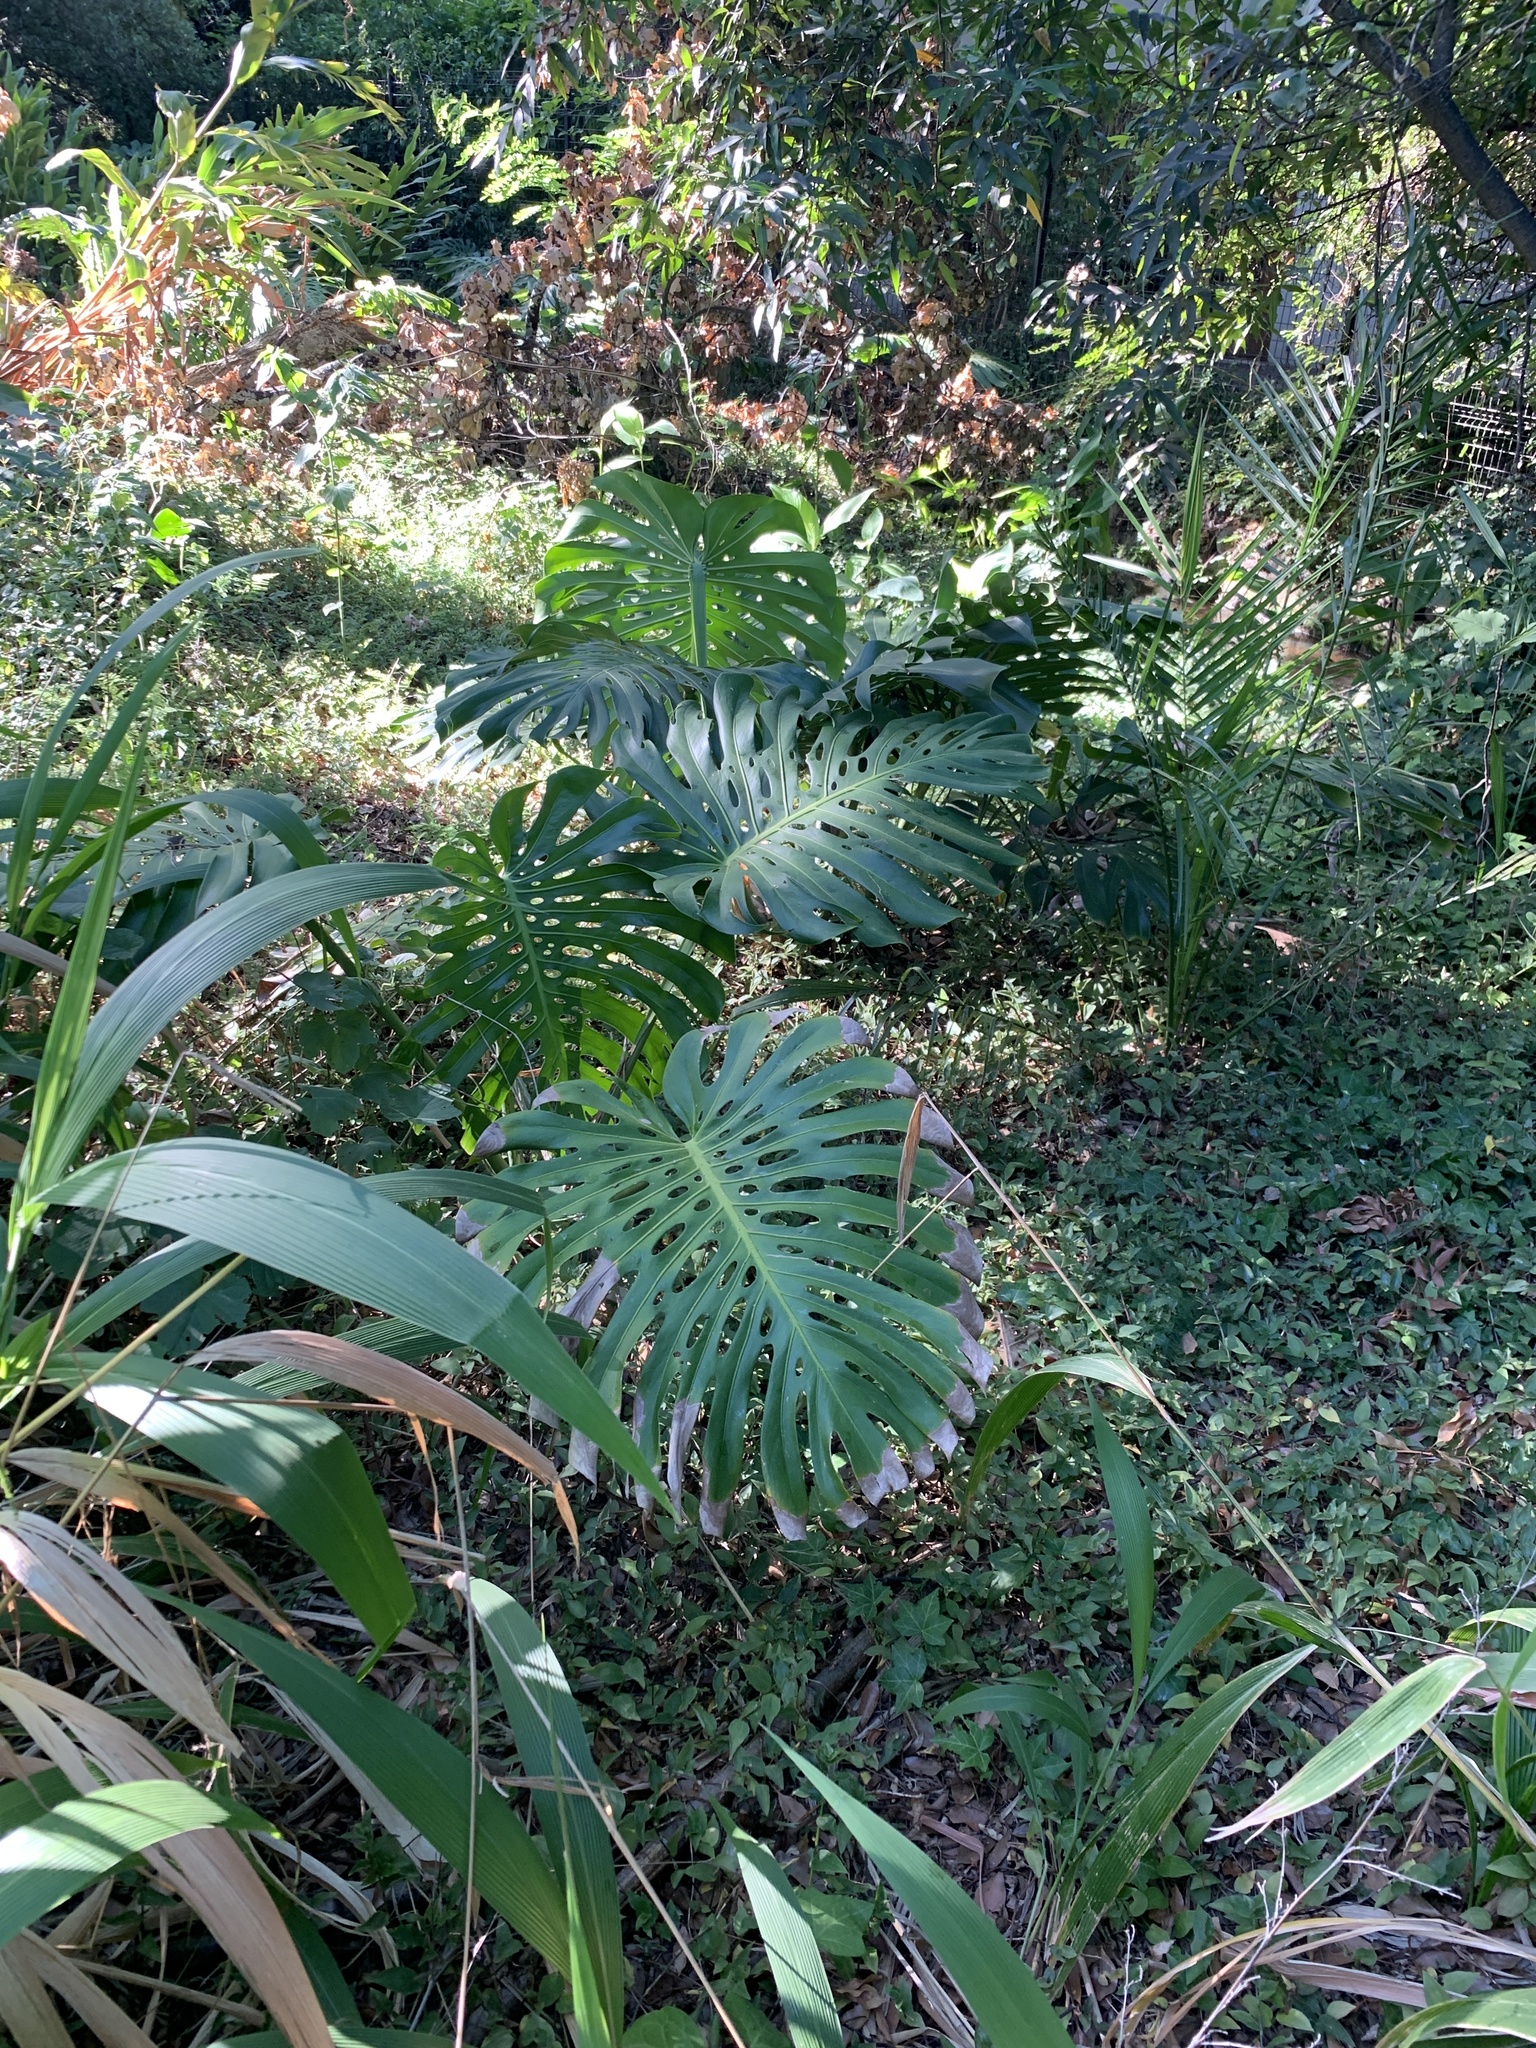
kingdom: Plantae
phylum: Tracheophyta
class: Liliopsida
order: Alismatales
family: Araceae
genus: Monstera
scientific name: Monstera deliciosa
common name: Cut-leaf-philodendron
